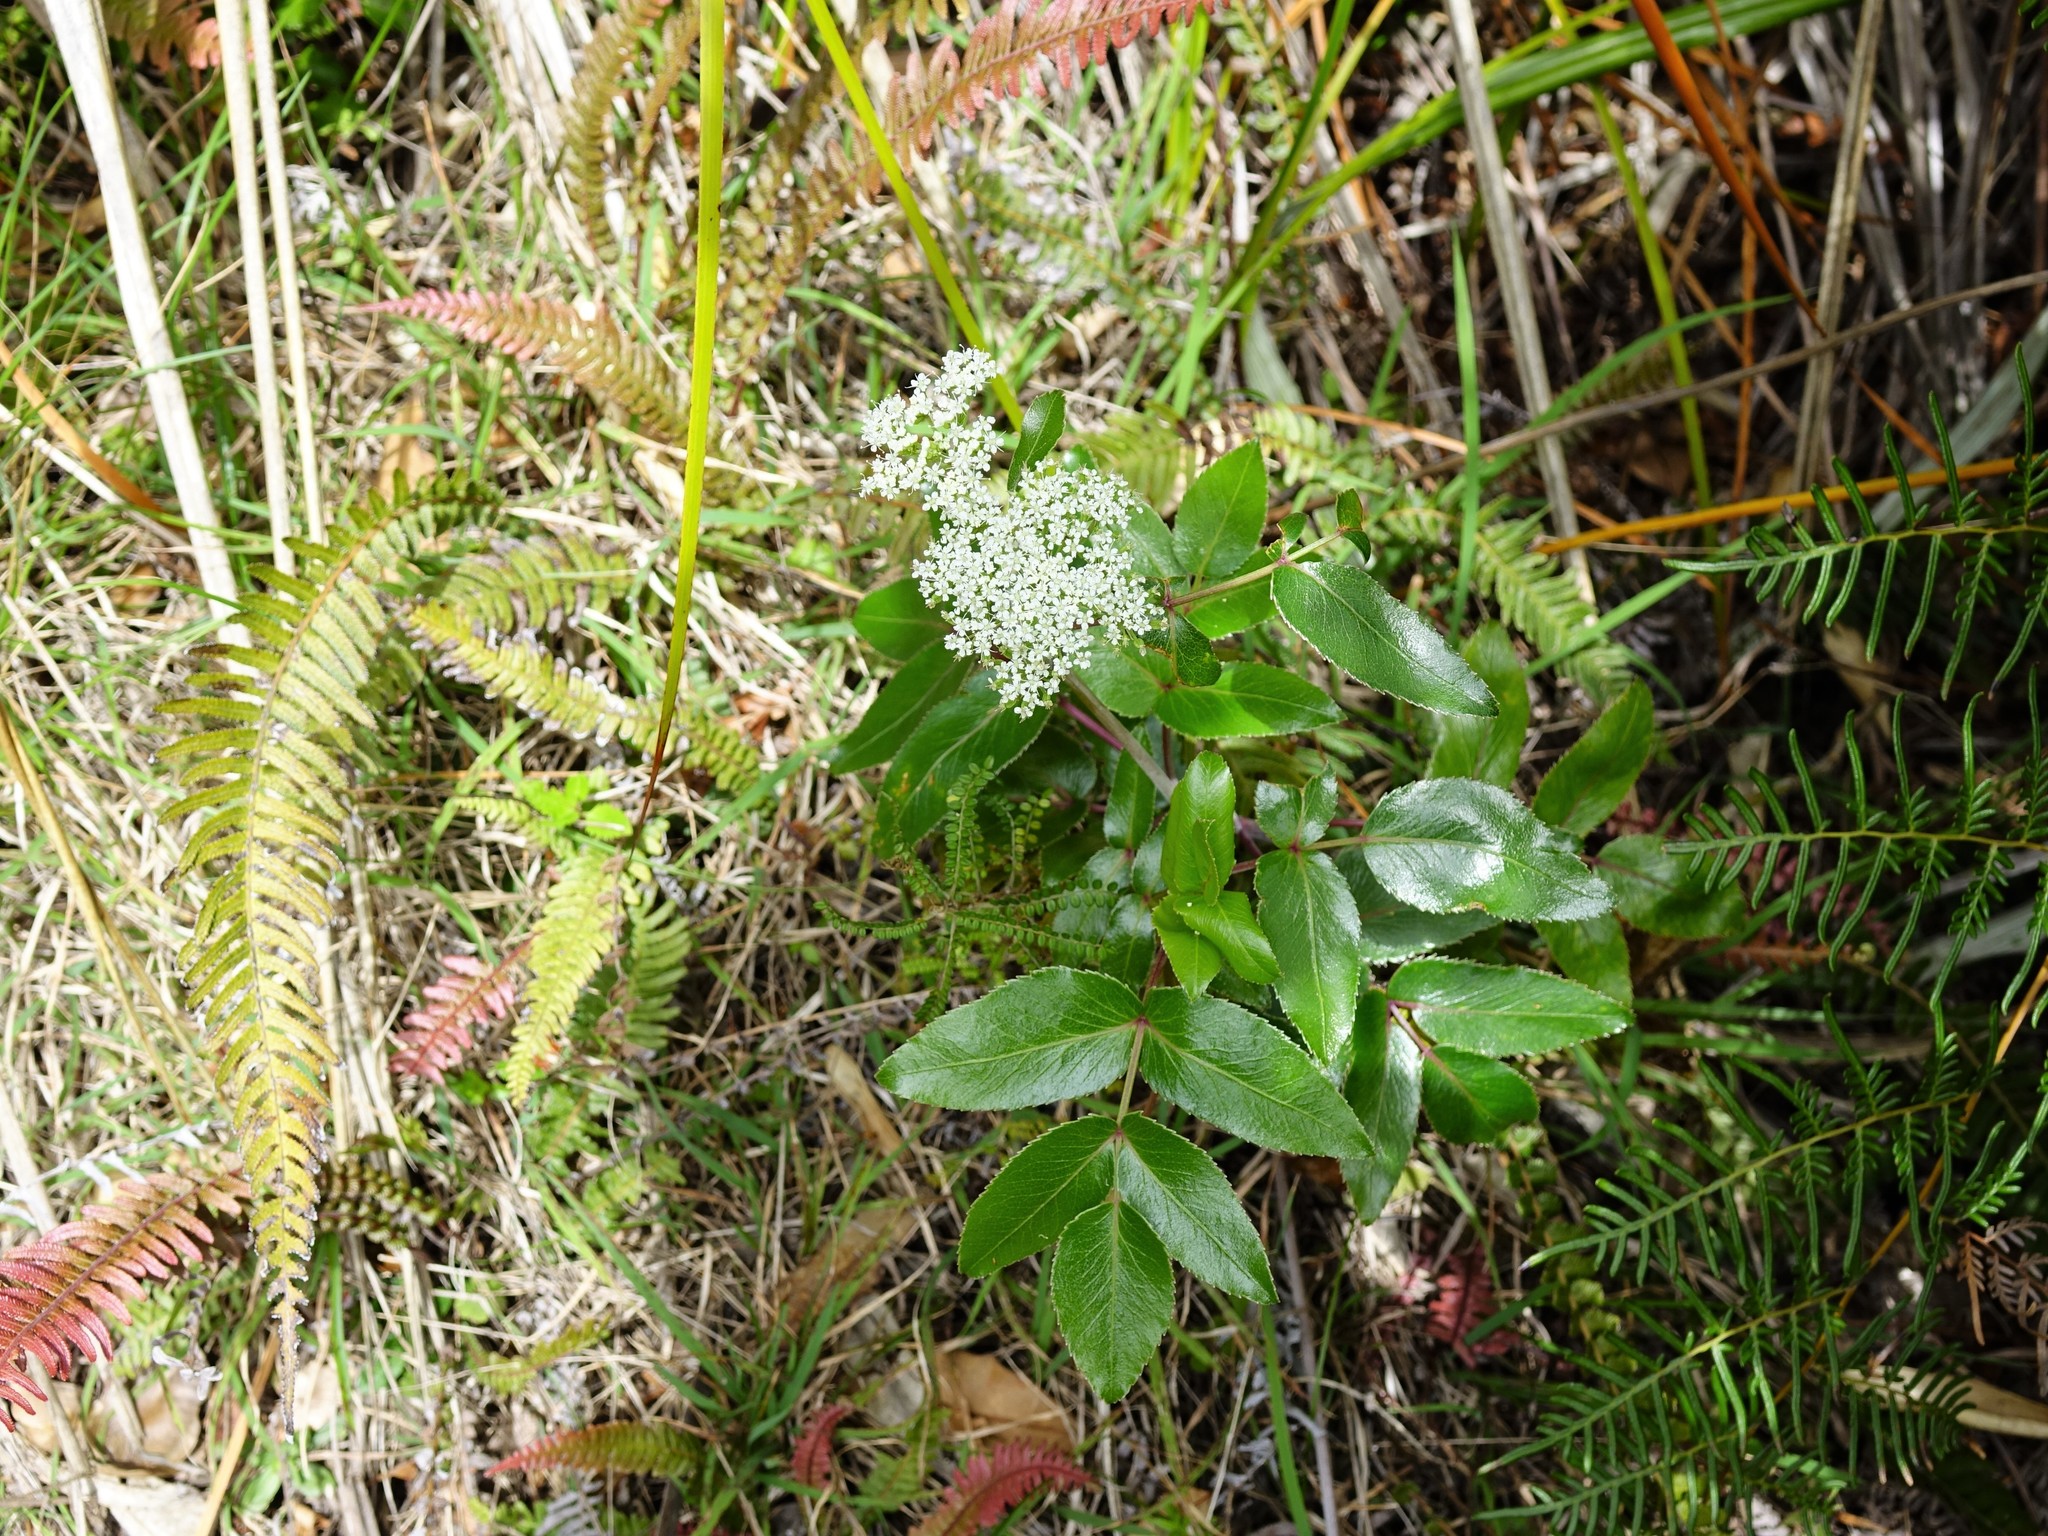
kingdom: Plantae
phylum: Tracheophyta
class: Magnoliopsida
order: Apiales
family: Apiaceae
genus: Scandia
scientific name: Scandia rosifolia
